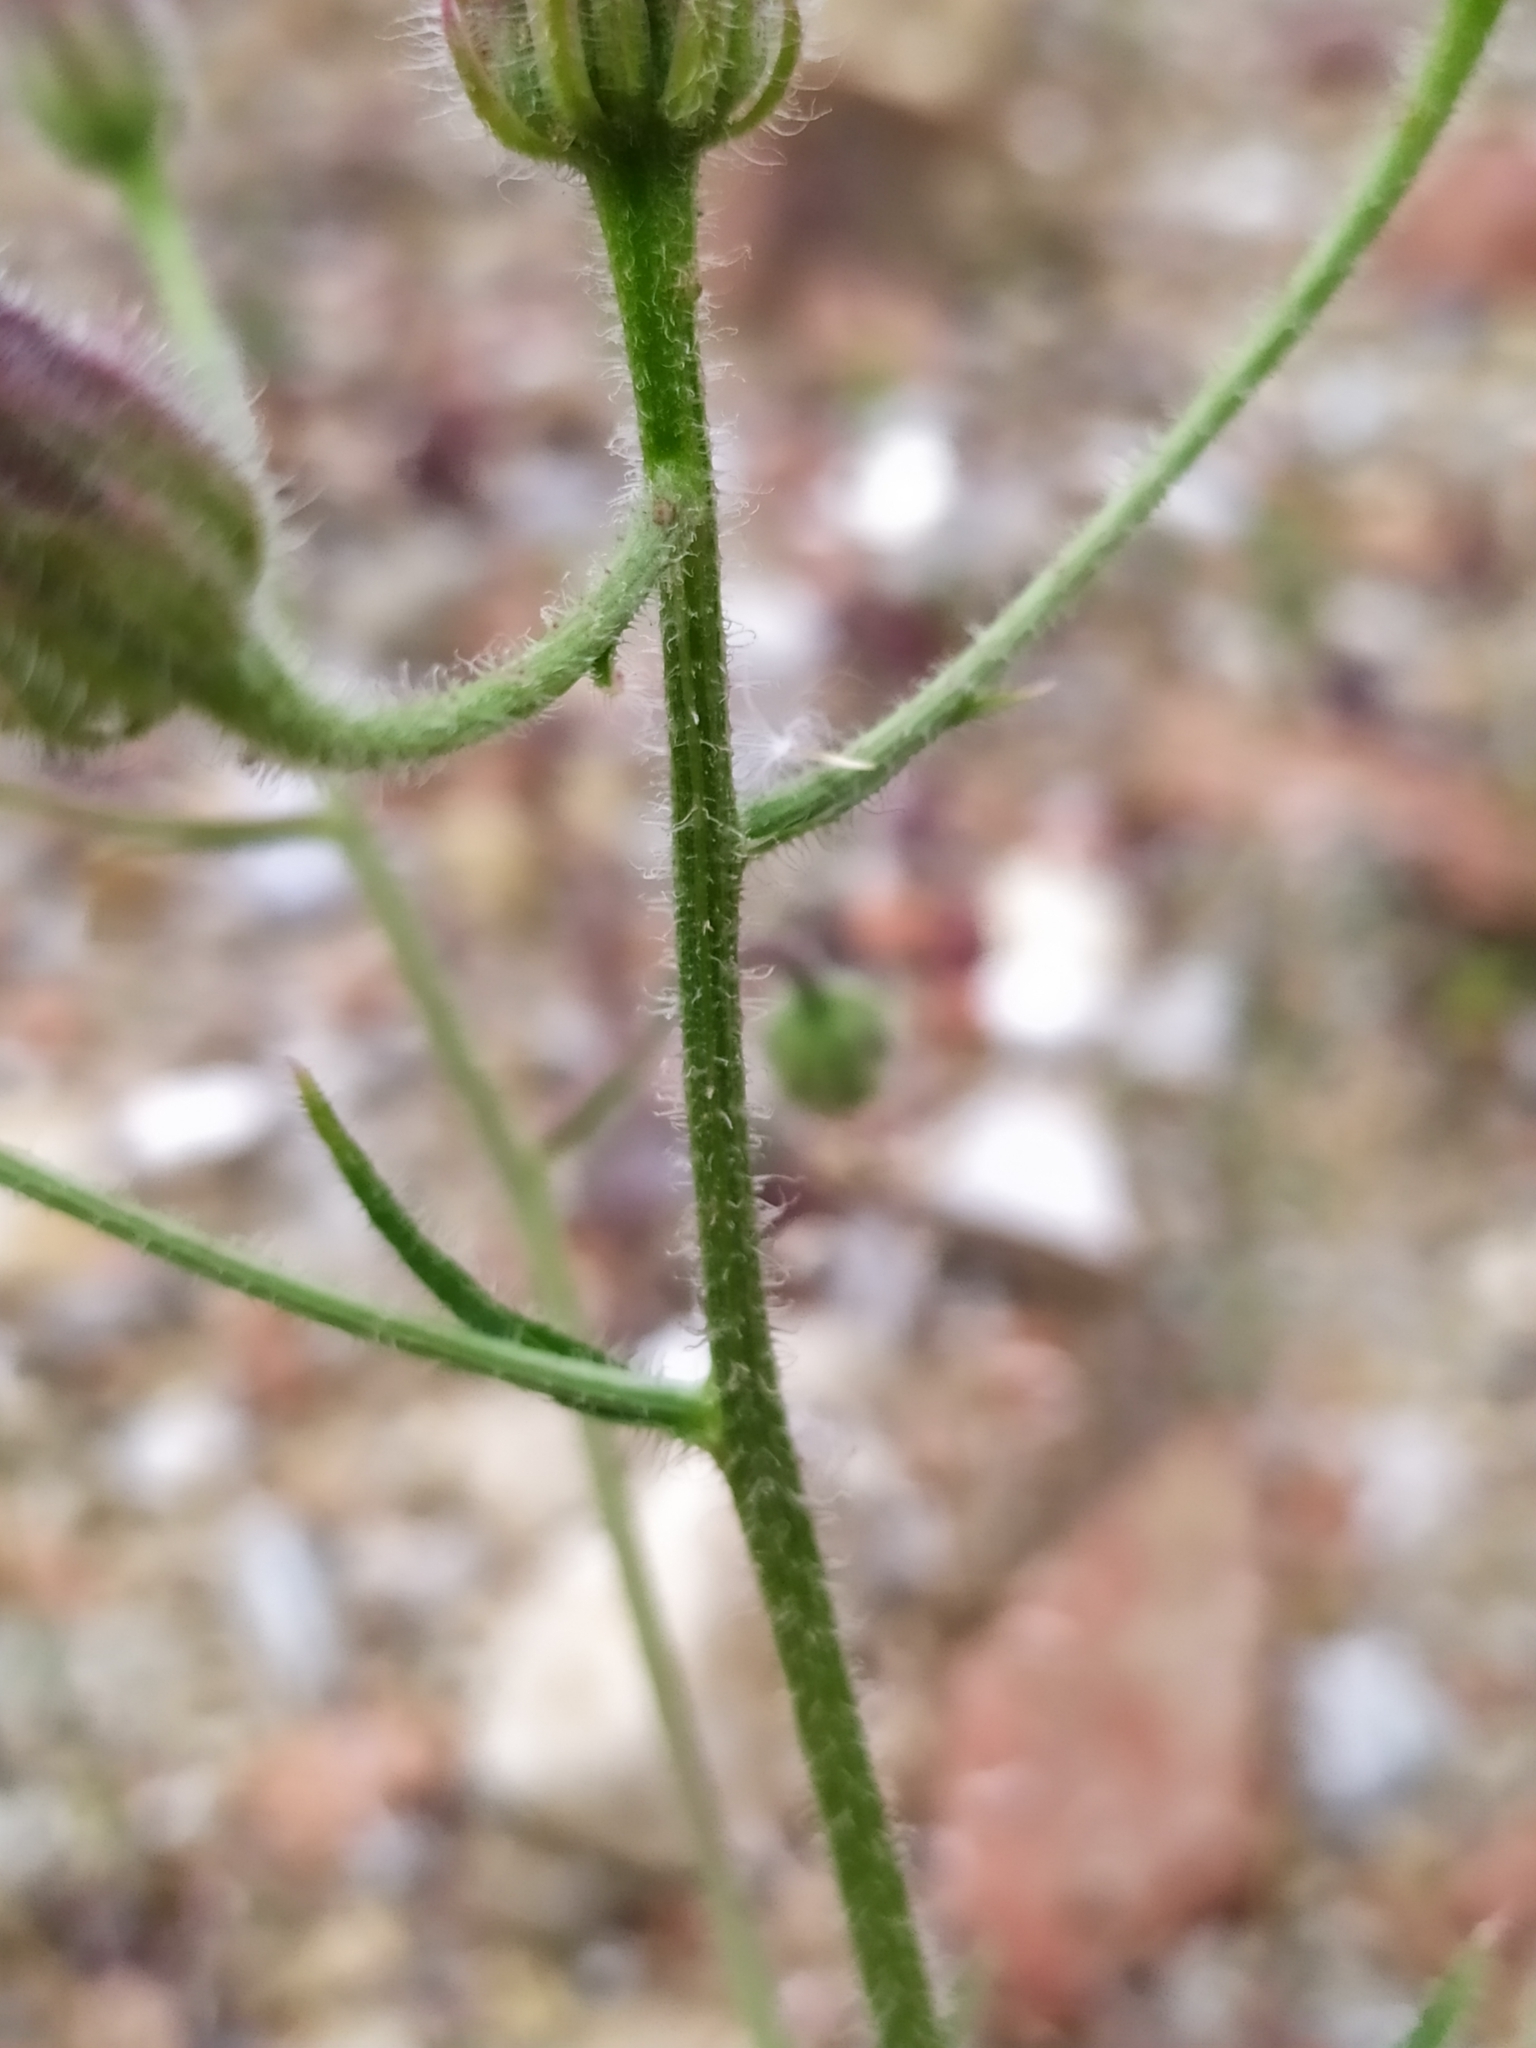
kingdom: Plantae
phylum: Tracheophyta
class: Magnoliopsida
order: Asterales
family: Asteraceae
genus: Crepis
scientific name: Crepis foetida
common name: Stinking hawk's-beard
